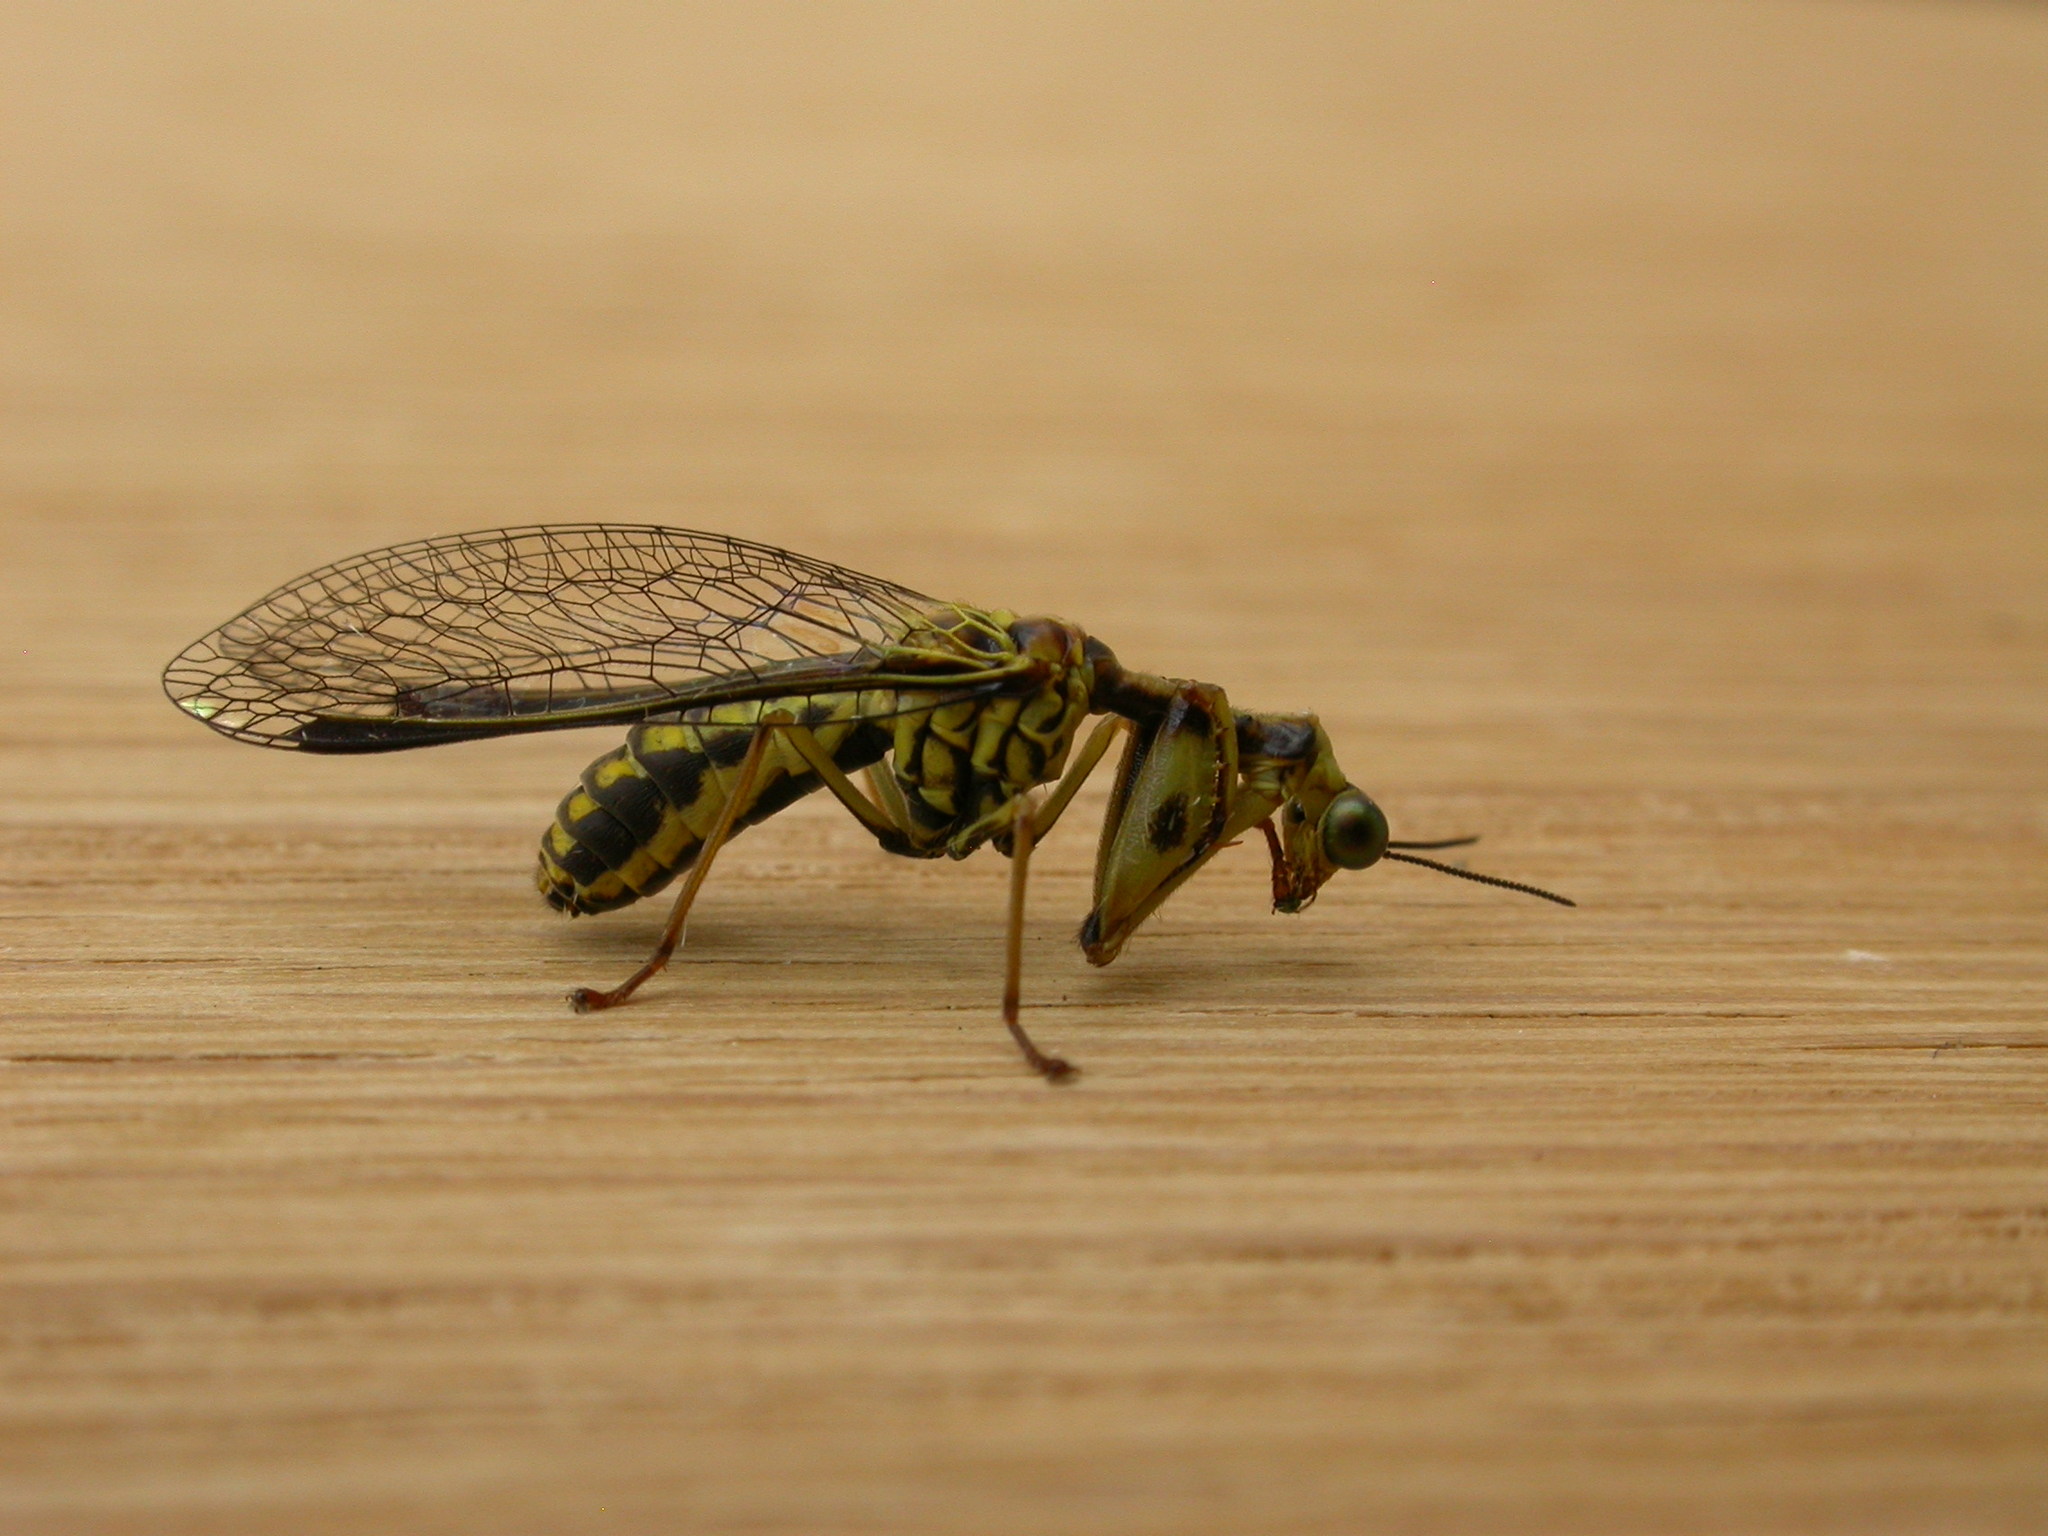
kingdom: Animalia
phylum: Arthropoda
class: Insecta
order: Neuroptera
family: Mantispidae
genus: Spaminta
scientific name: Spaminta minjerribae
